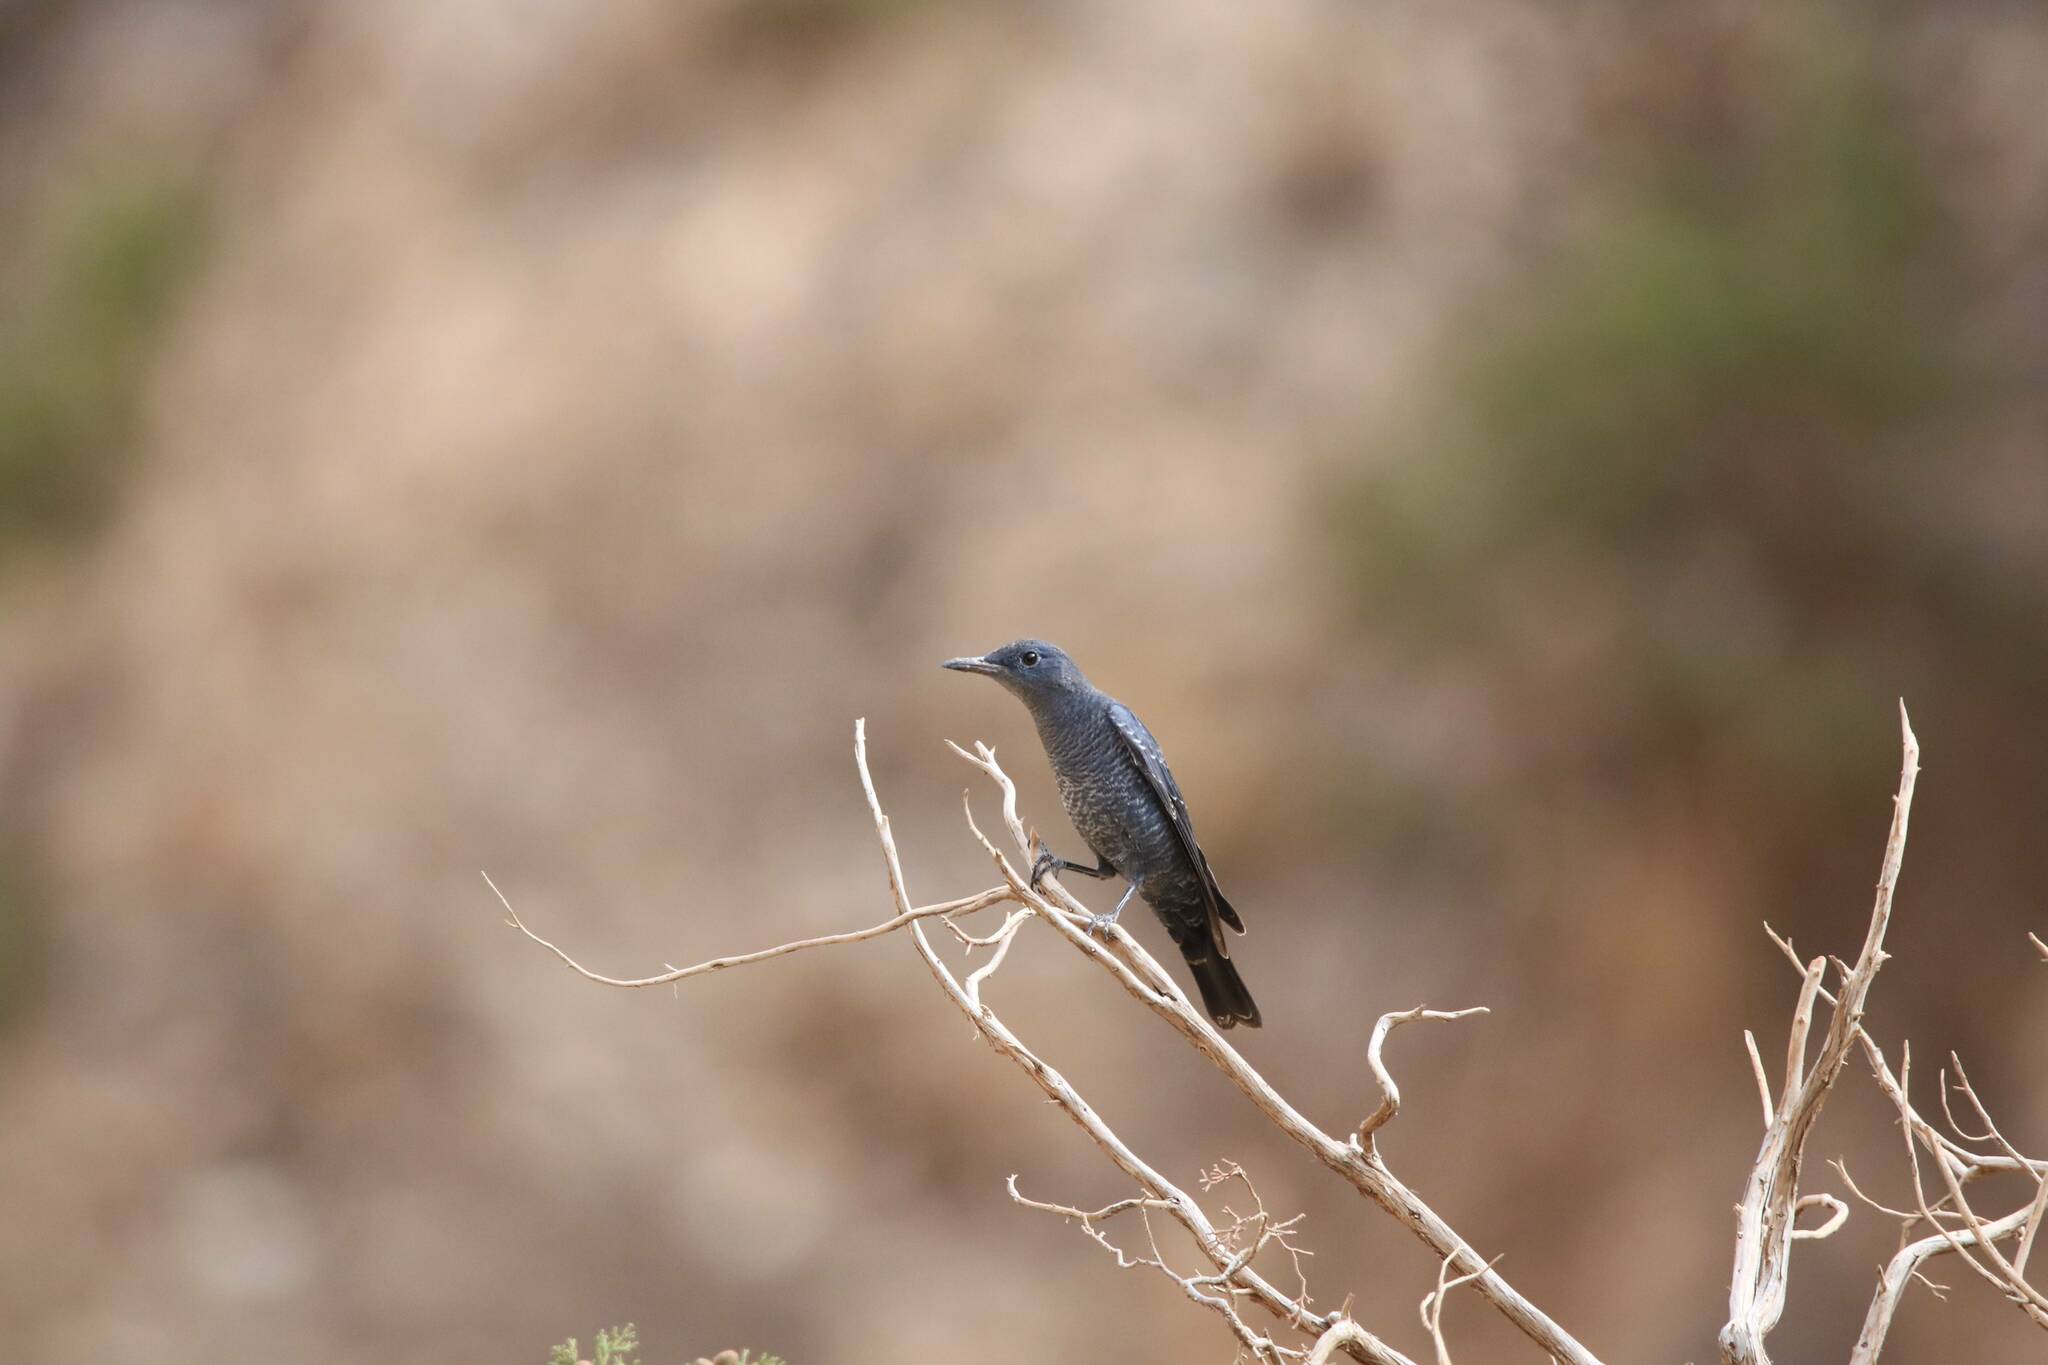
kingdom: Animalia
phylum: Chordata
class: Aves
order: Passeriformes
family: Muscicapidae
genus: Monticola
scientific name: Monticola solitarius
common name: Blue rock thrush
